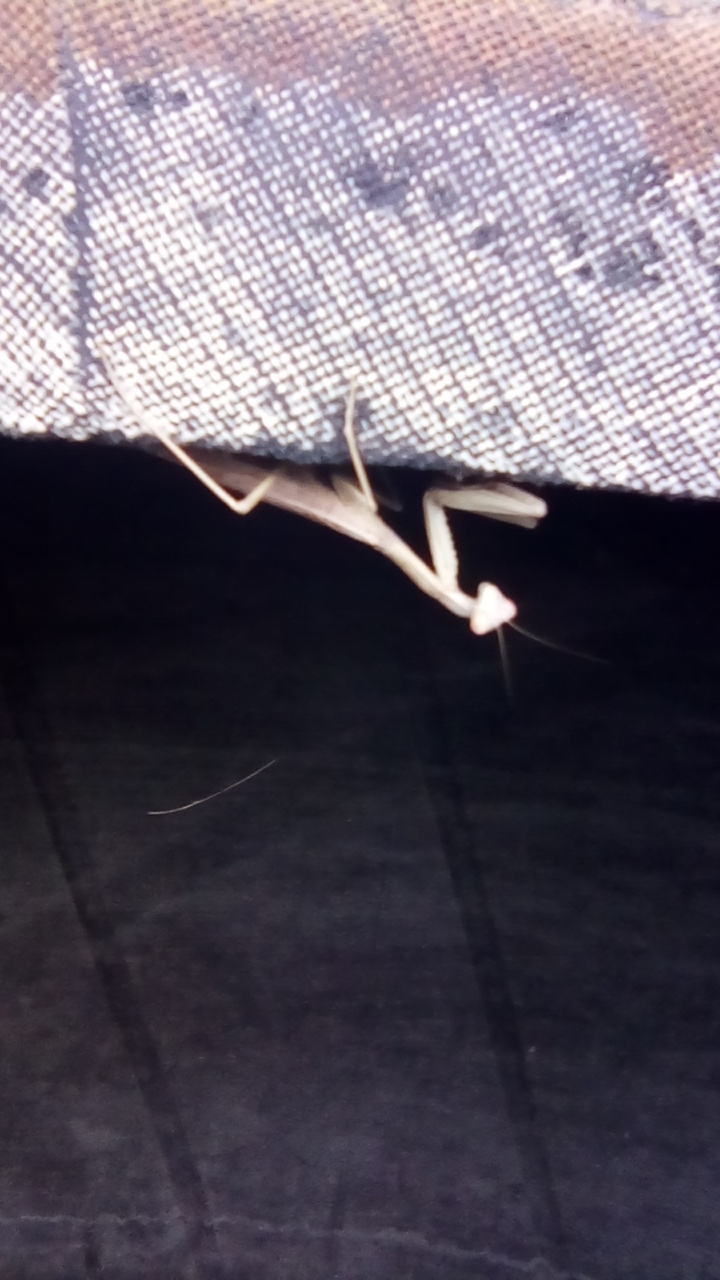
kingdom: Animalia
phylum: Arthropoda
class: Insecta
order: Mantodea
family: Eremiaphilidae
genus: Iris
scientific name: Iris polystictica
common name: Dot-winged mantis
